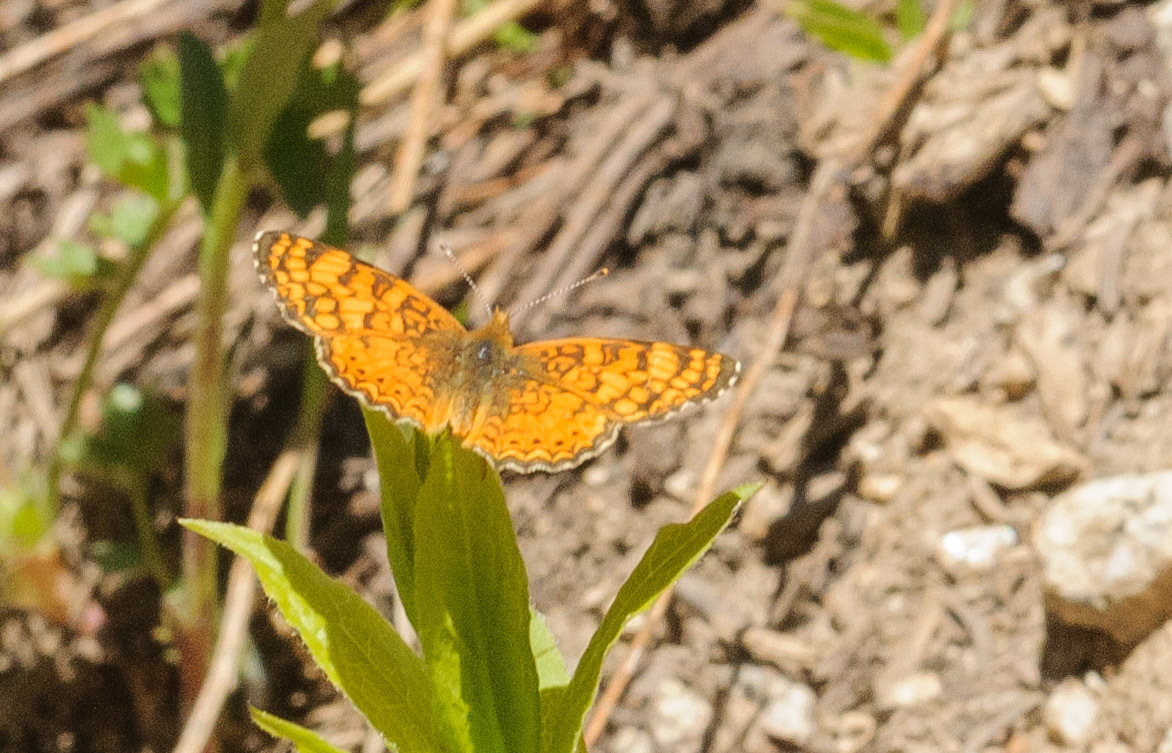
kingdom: Animalia
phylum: Arthropoda
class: Insecta
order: Lepidoptera
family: Nymphalidae
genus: Eresia
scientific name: Eresia aveyrona
